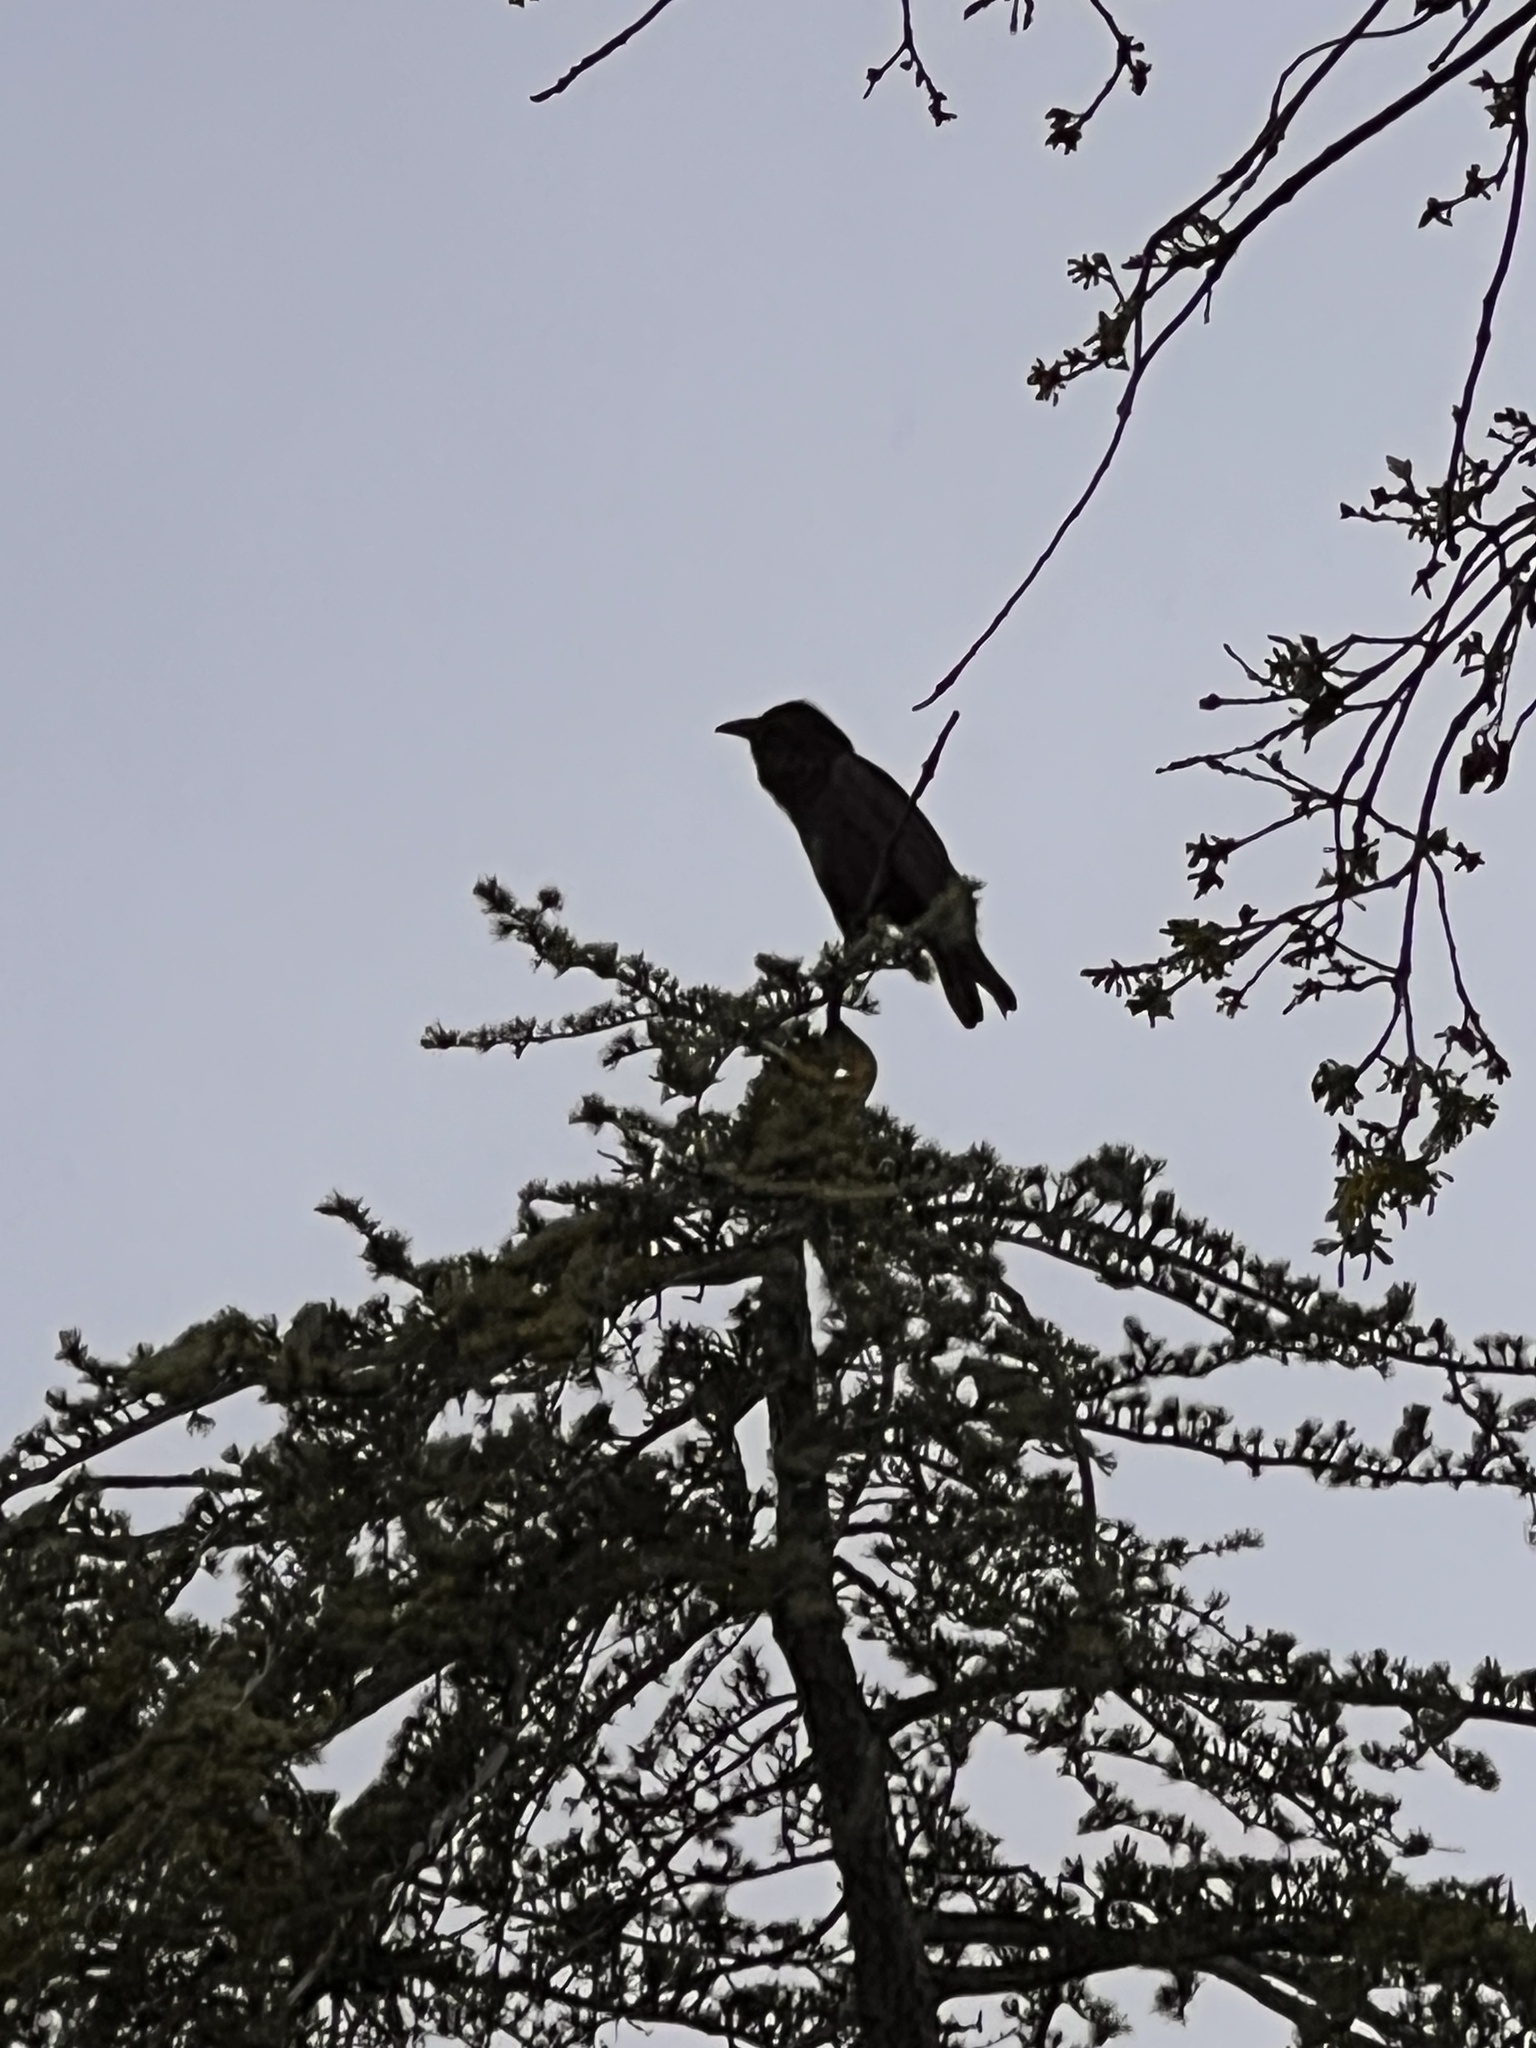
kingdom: Animalia
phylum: Chordata
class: Aves
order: Passeriformes
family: Corvidae
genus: Corvus
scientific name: Corvus corax
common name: Common raven
